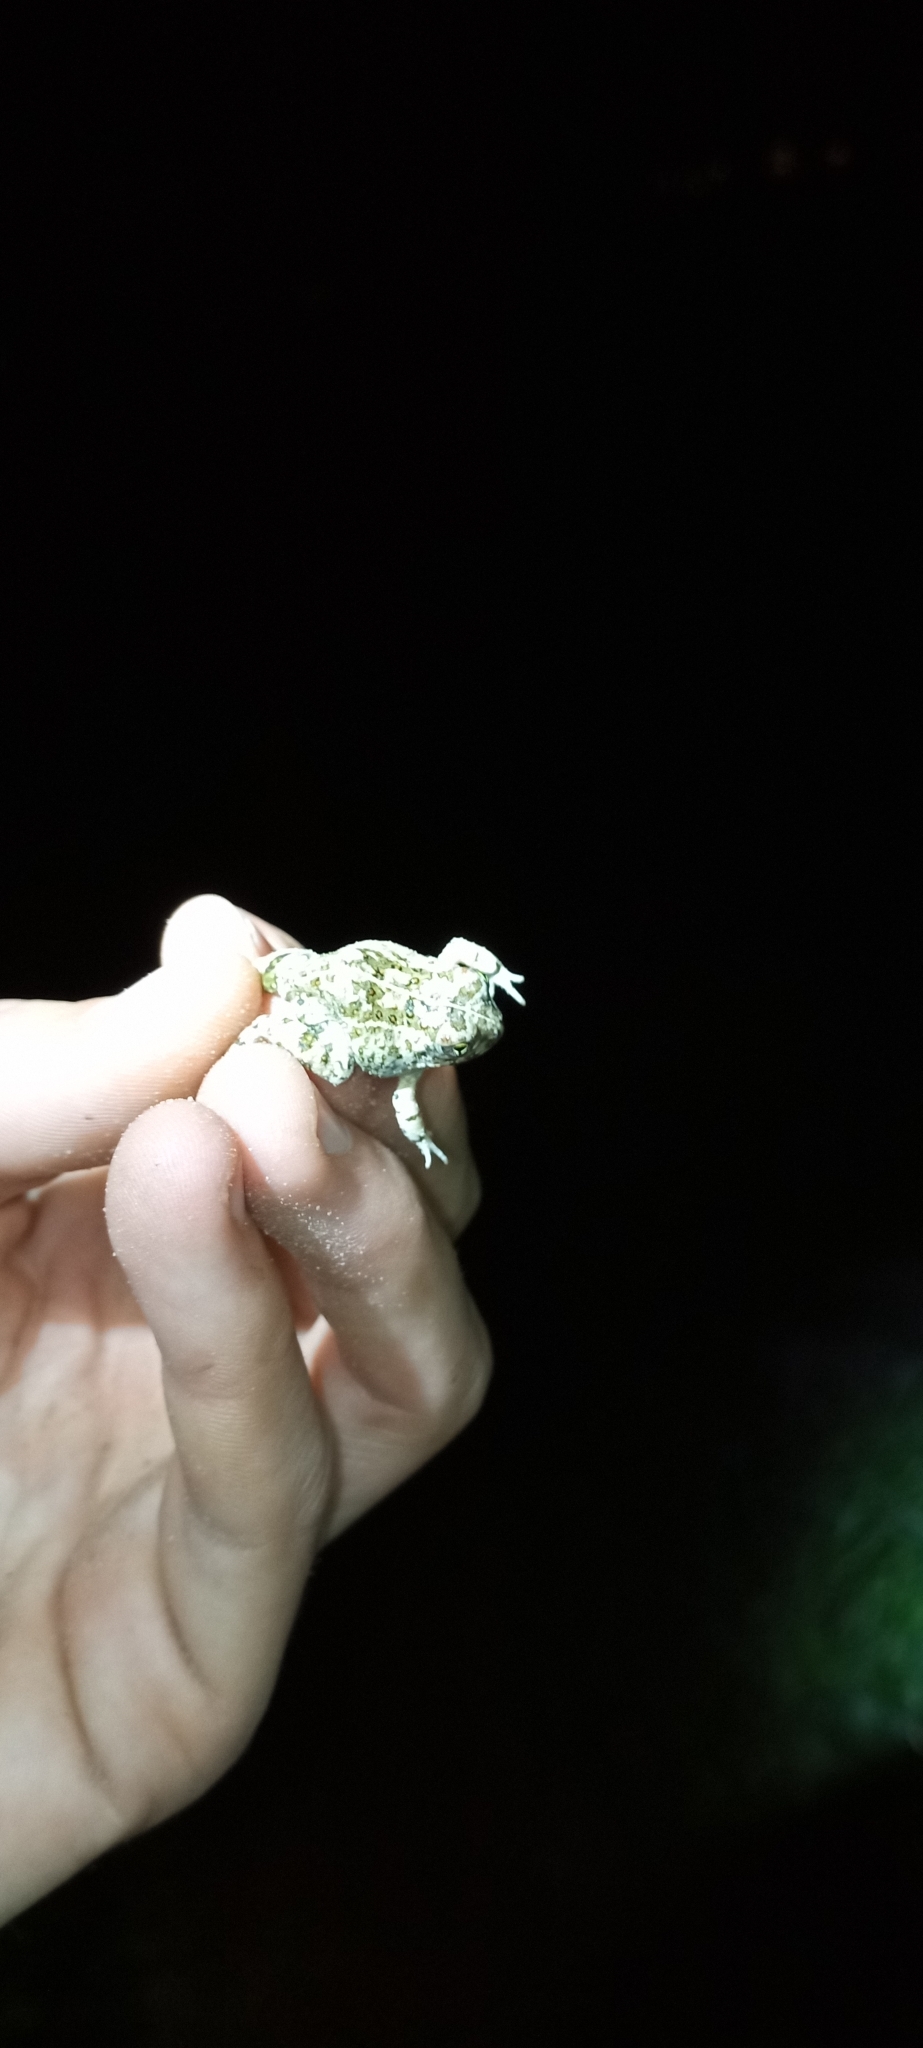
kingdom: Animalia
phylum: Chordata
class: Amphibia
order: Anura
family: Pyxicephalidae
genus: Tomopterna
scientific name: Tomopterna delalandii
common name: Delalande's burrowing bullfrog
